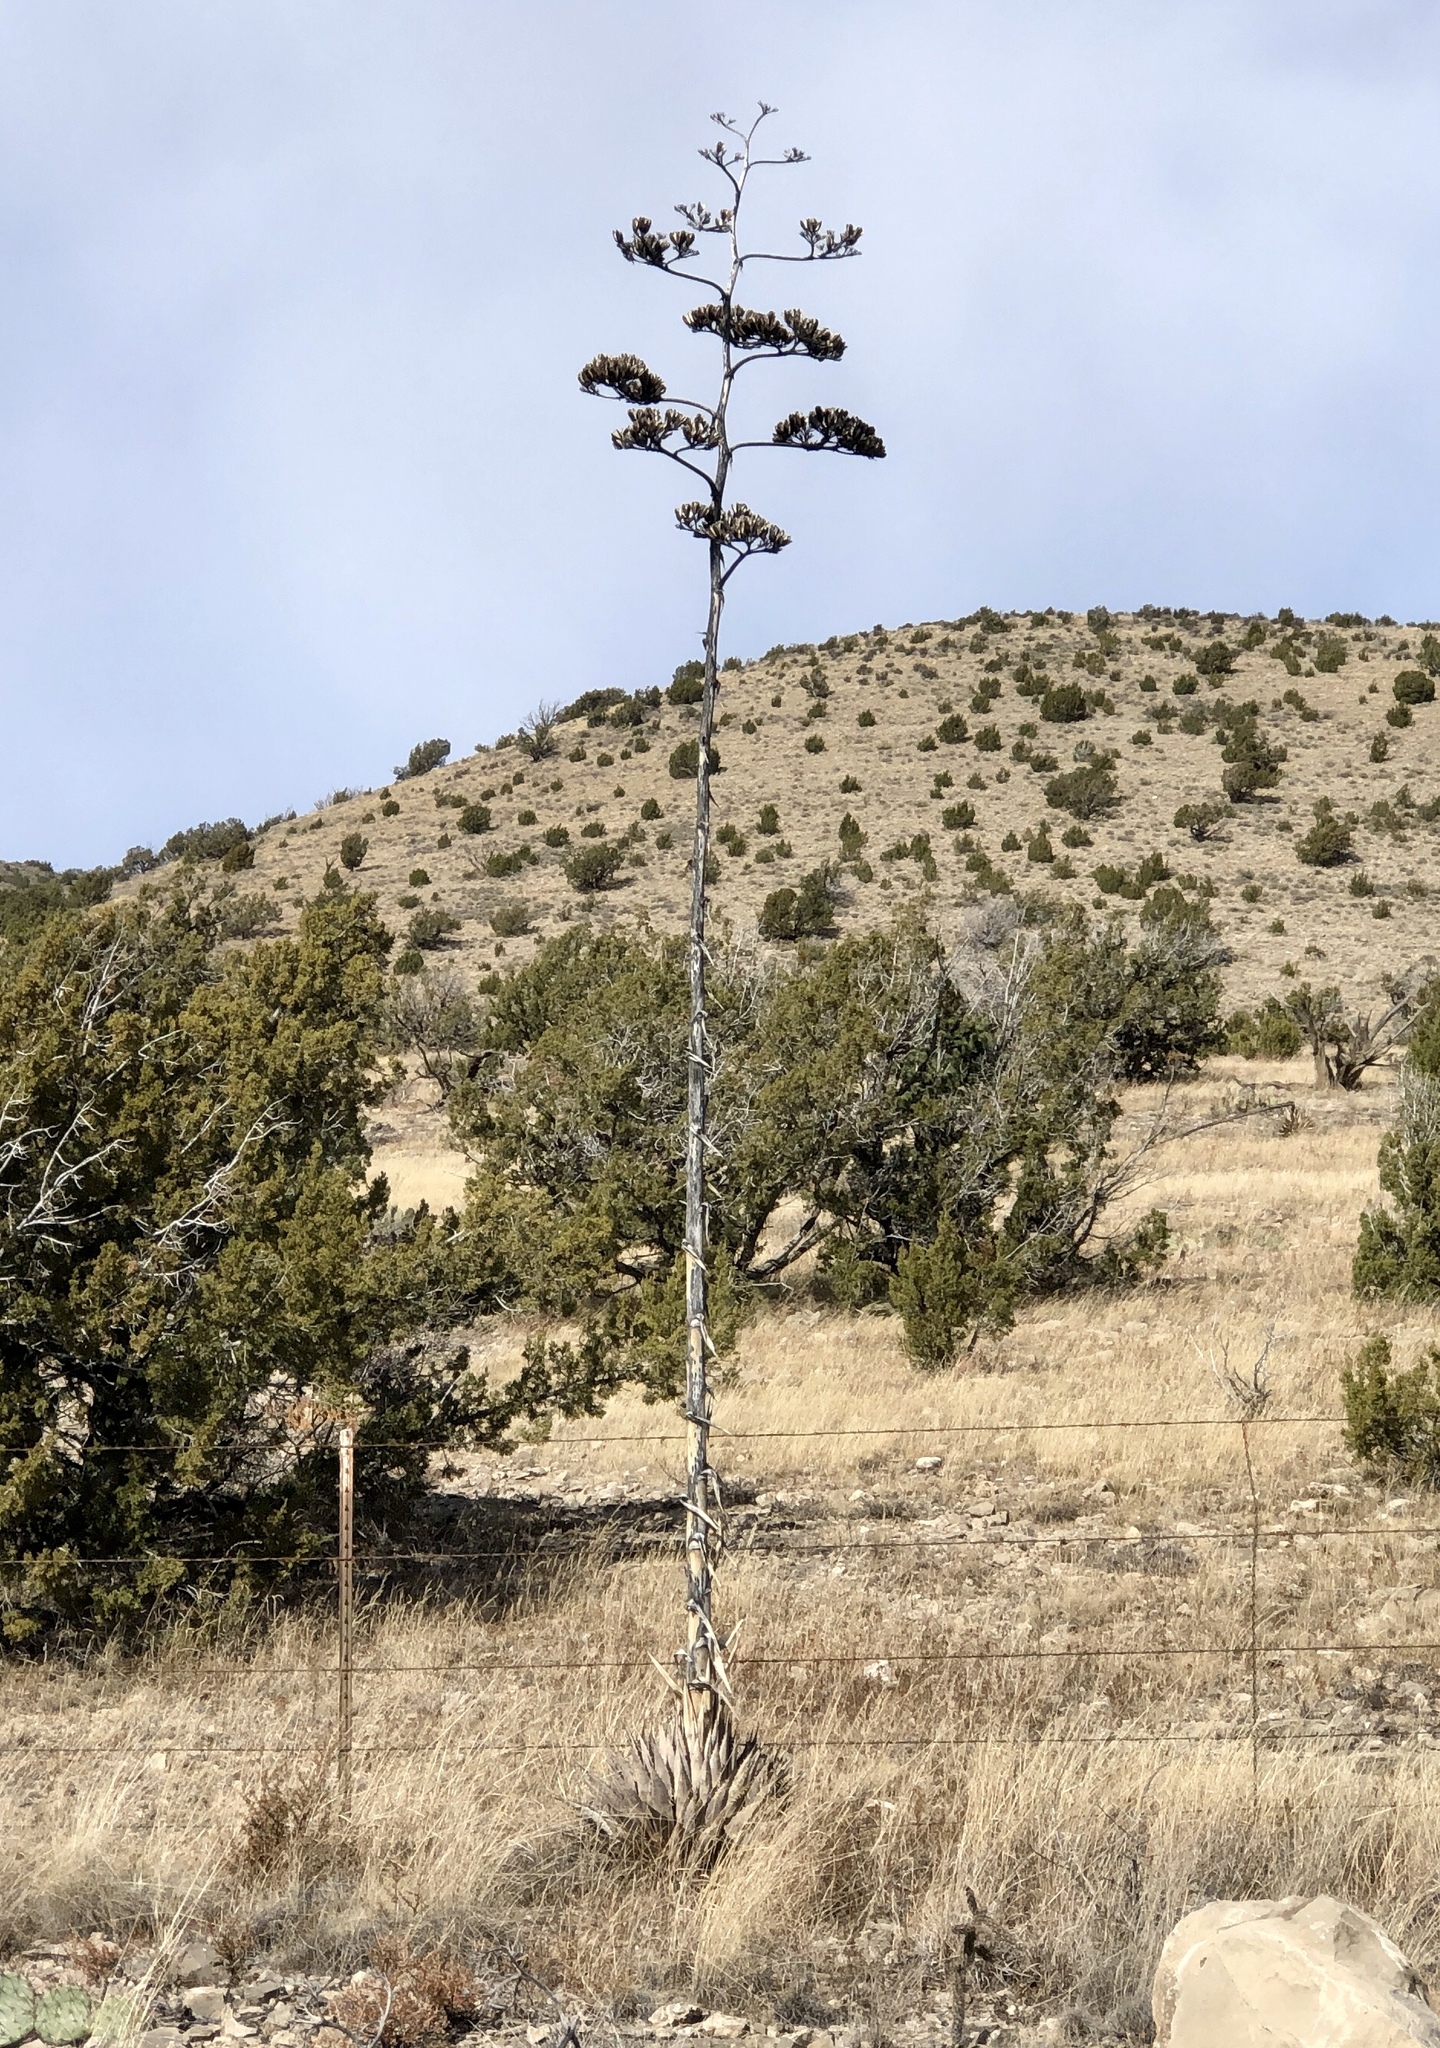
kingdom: Plantae
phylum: Tracheophyta
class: Liliopsida
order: Asparagales
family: Asparagaceae
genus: Agave
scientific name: Agave parryi
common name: Parry's agave
